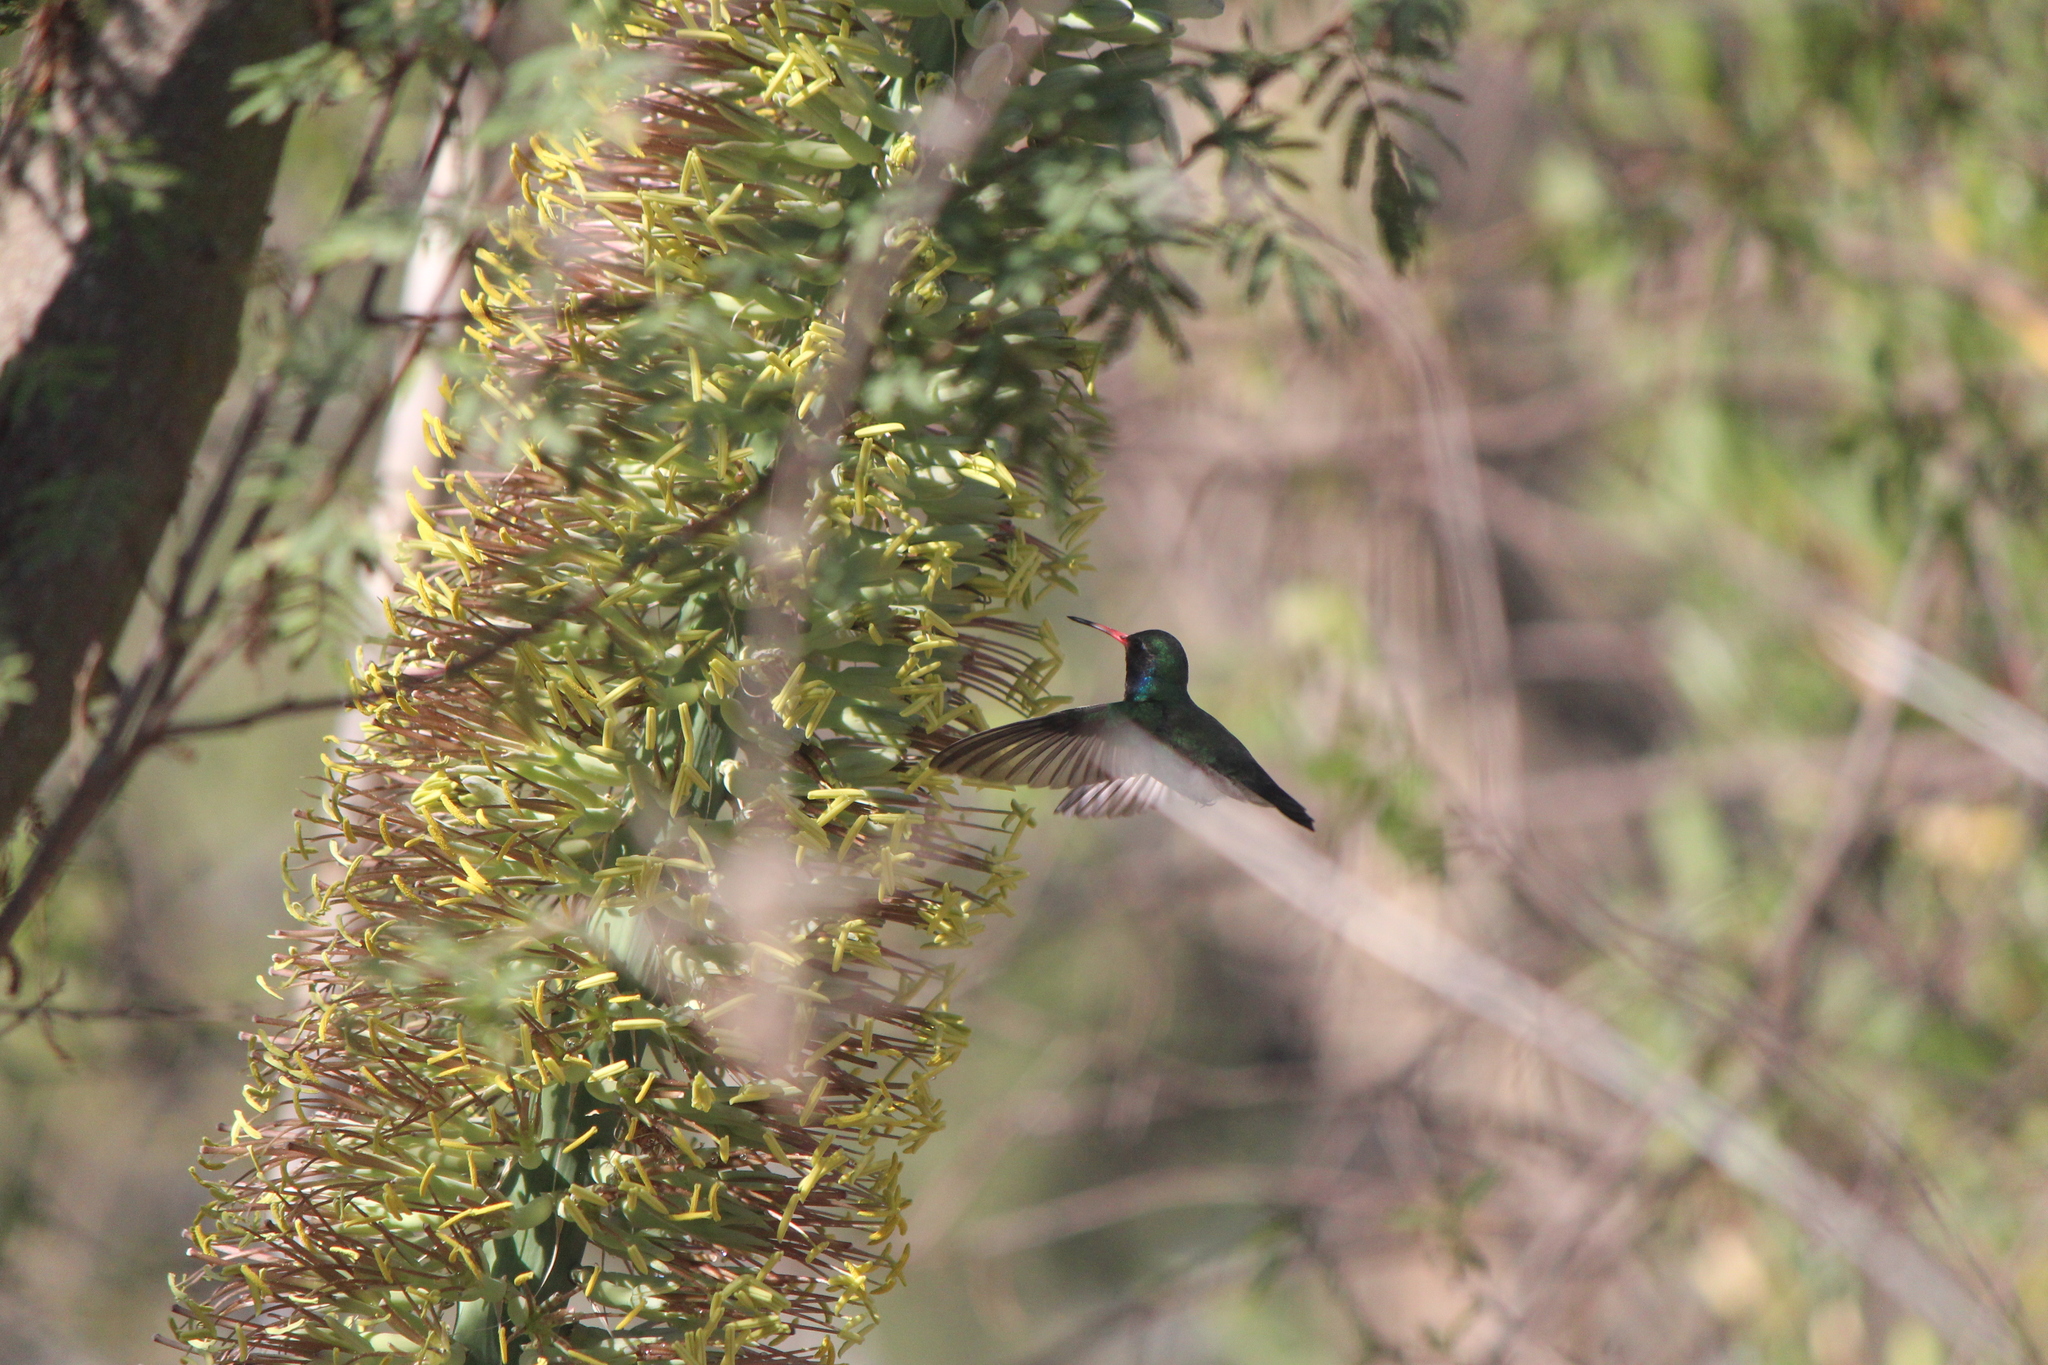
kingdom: Animalia
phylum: Chordata
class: Aves
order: Apodiformes
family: Trochilidae
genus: Cynanthus
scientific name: Cynanthus latirostris
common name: Broad-billed hummingbird
